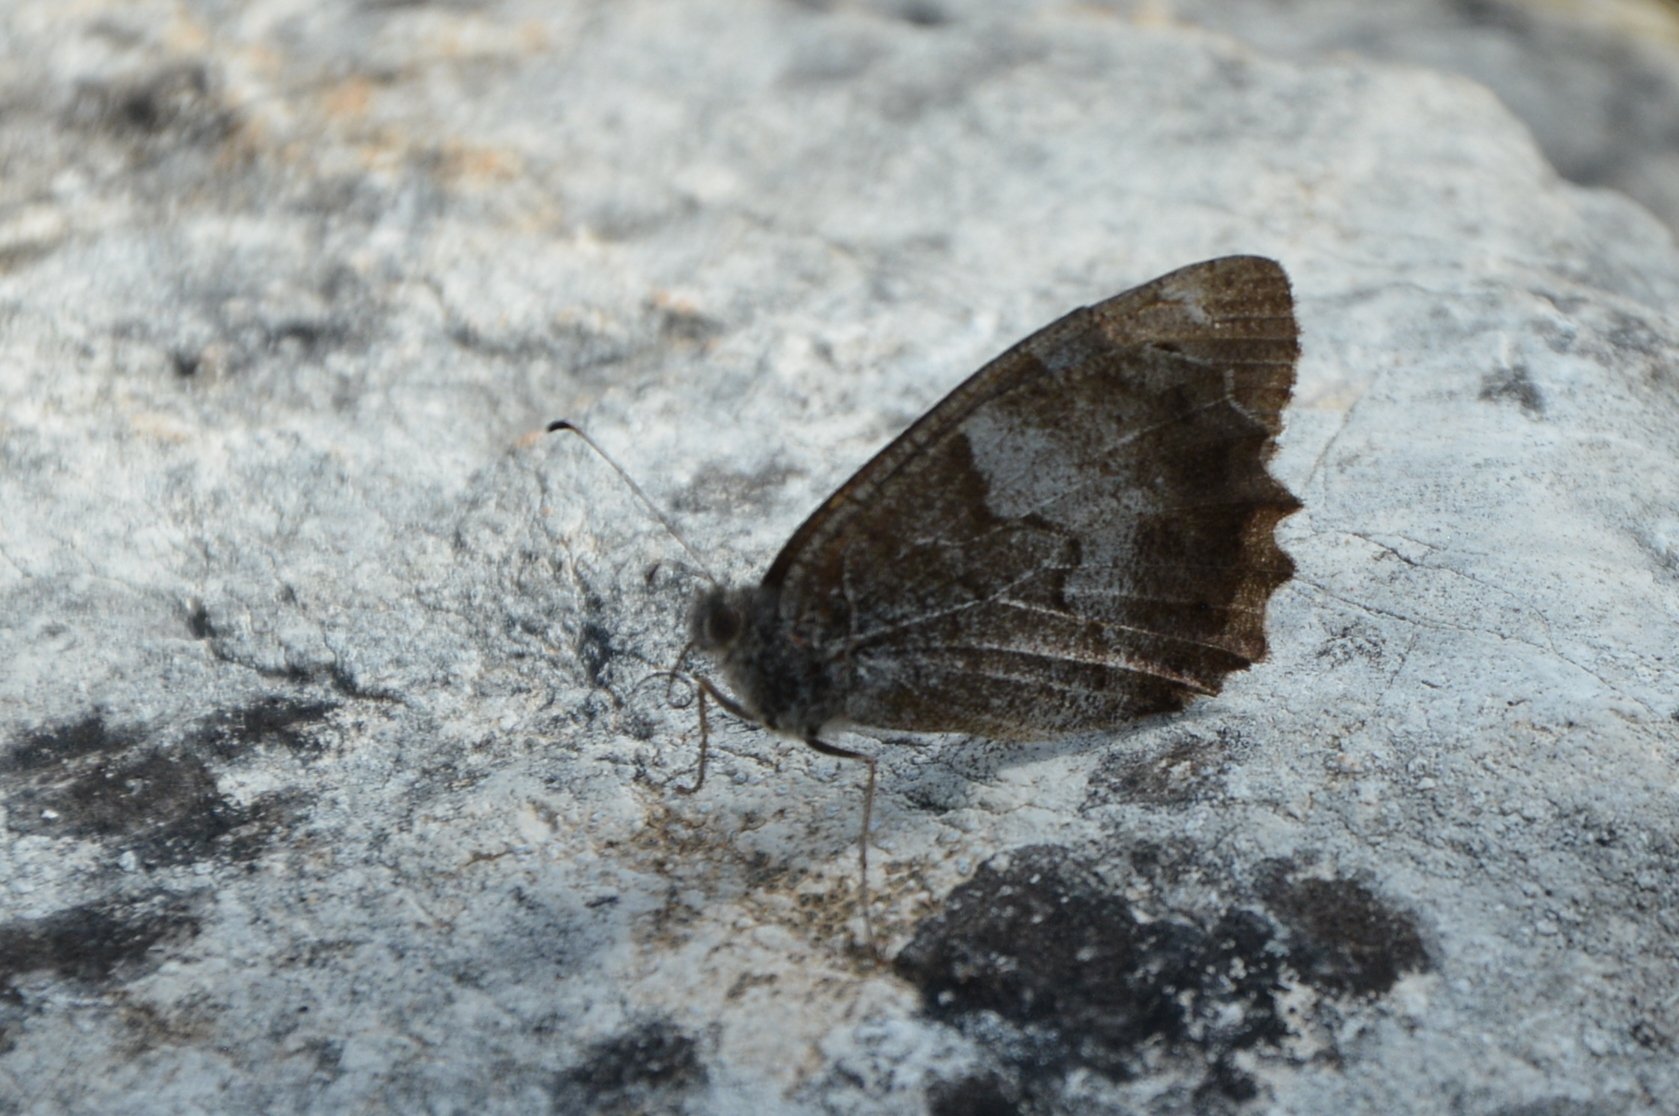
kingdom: Animalia
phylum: Arthropoda
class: Insecta
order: Lepidoptera
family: Nymphalidae
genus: Hipparchia
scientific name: Hipparchia statilinus
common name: Tree grayling
